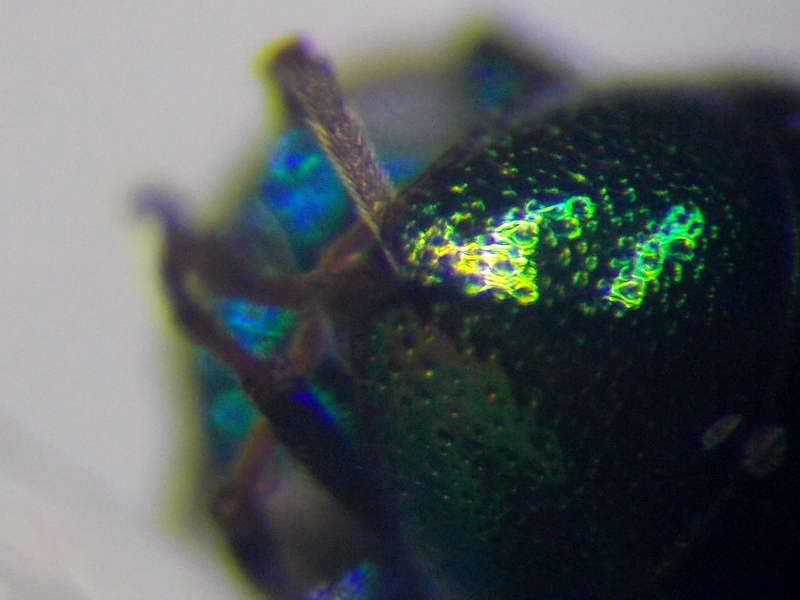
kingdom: Animalia
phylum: Arthropoda
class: Insecta
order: Hymenoptera
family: Chrysididae
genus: Pseudomalus
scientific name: Pseudomalus pusillus
